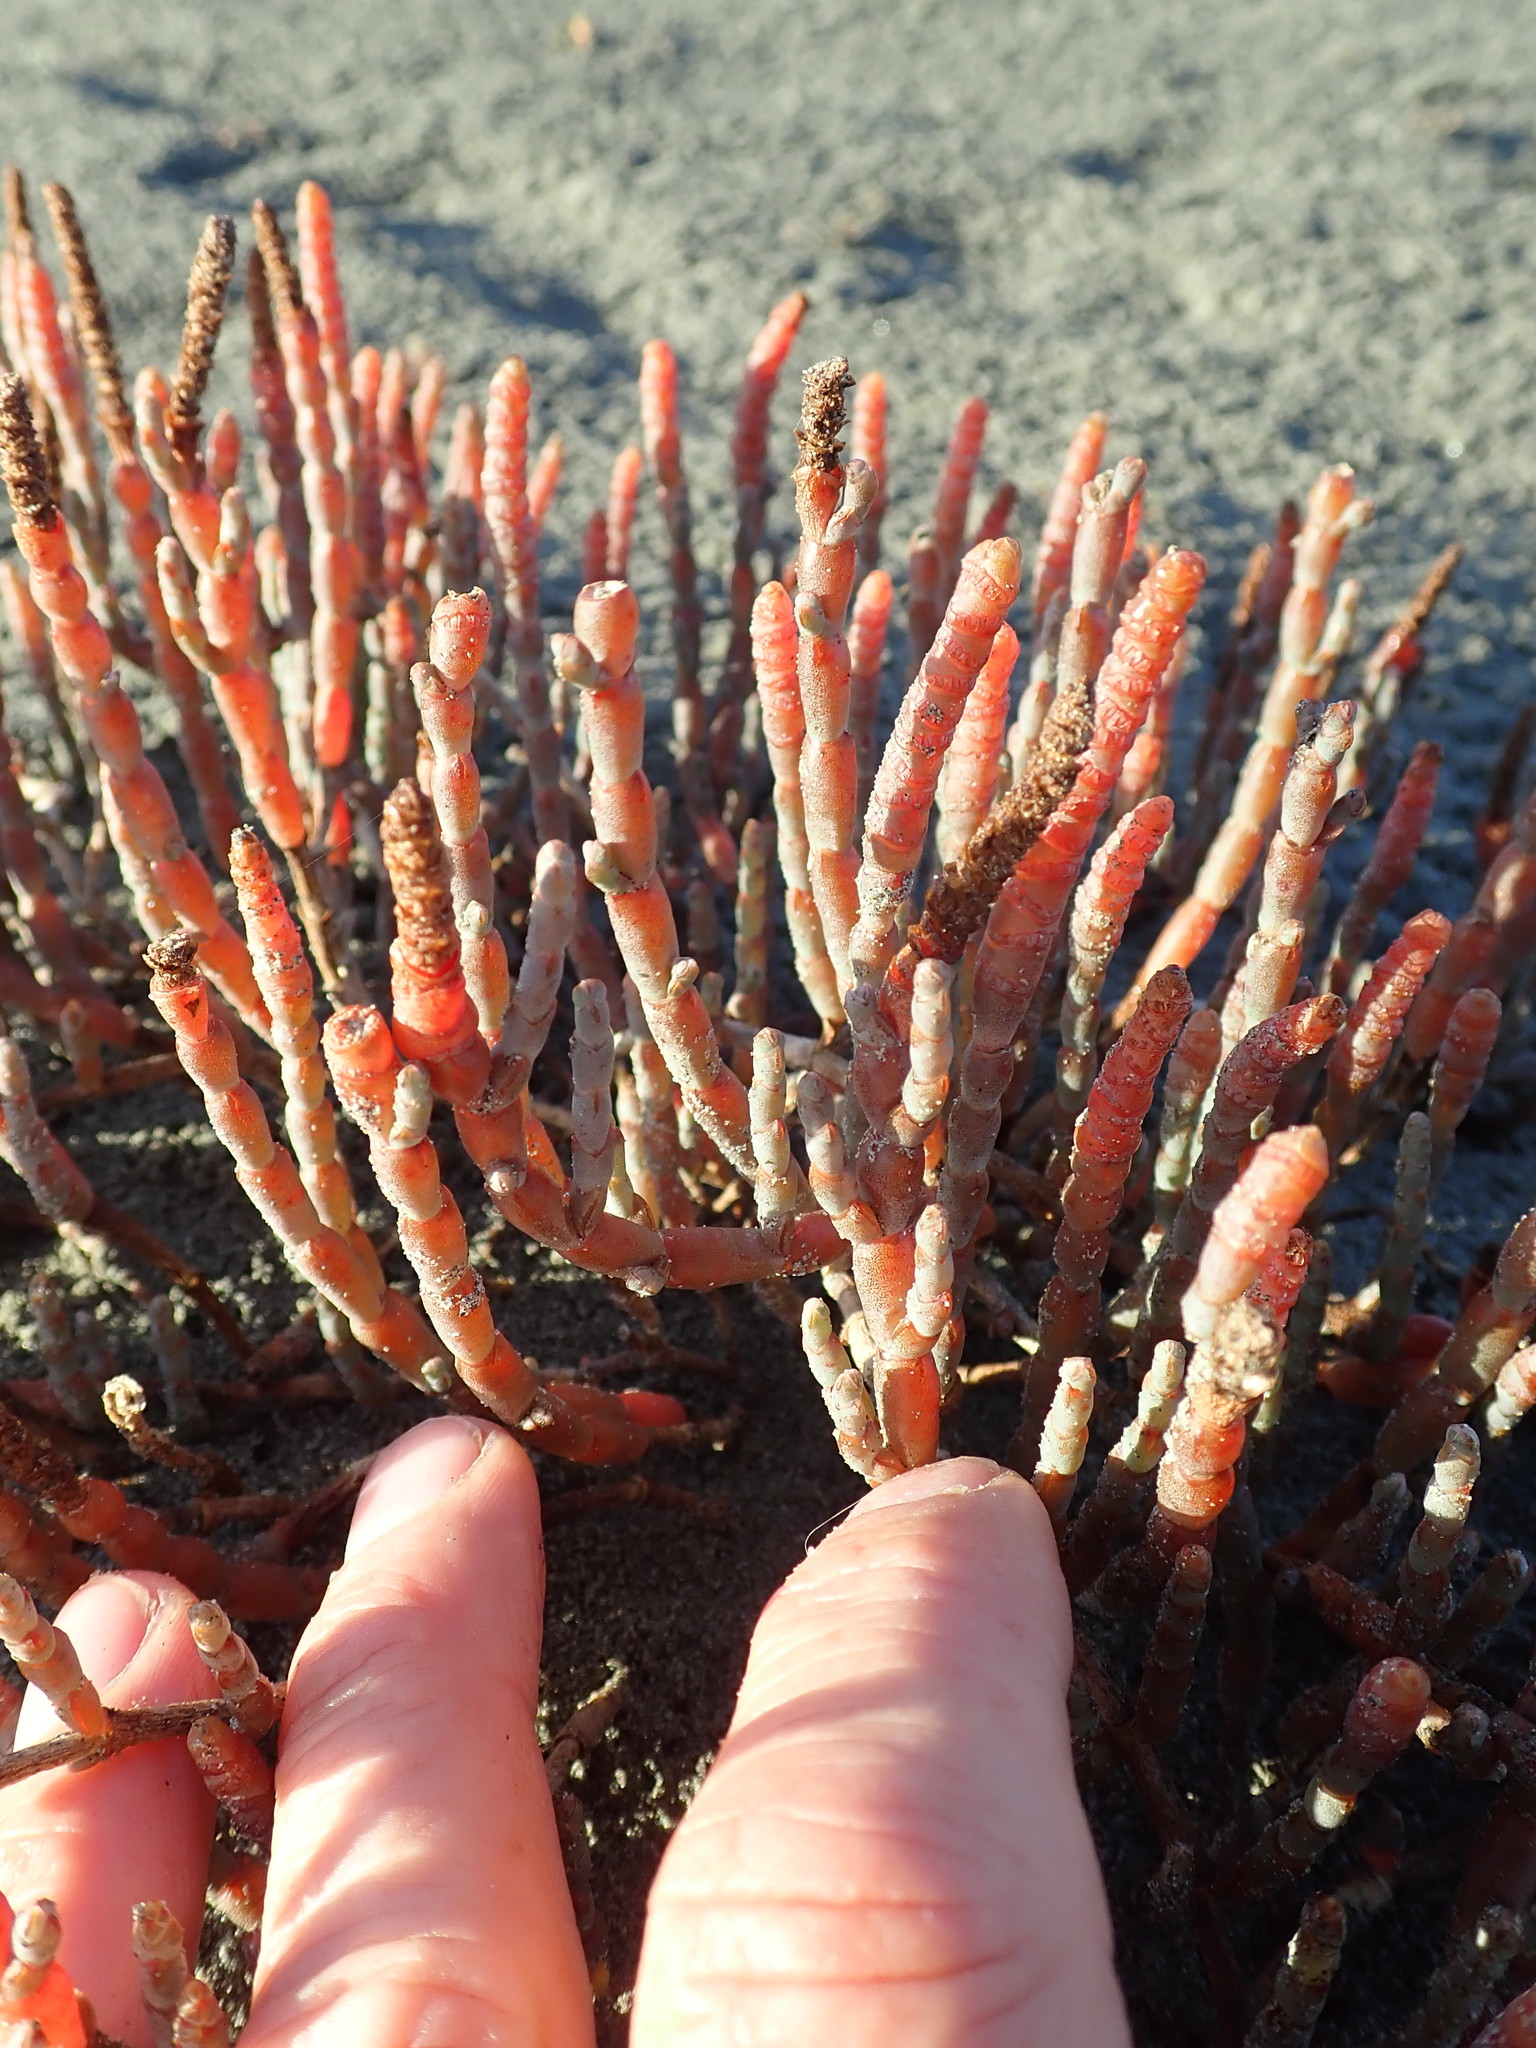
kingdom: Plantae
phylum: Tracheophyta
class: Magnoliopsida
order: Caryophyllales
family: Amaranthaceae
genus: Salicornia
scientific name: Salicornia quinqueflora
